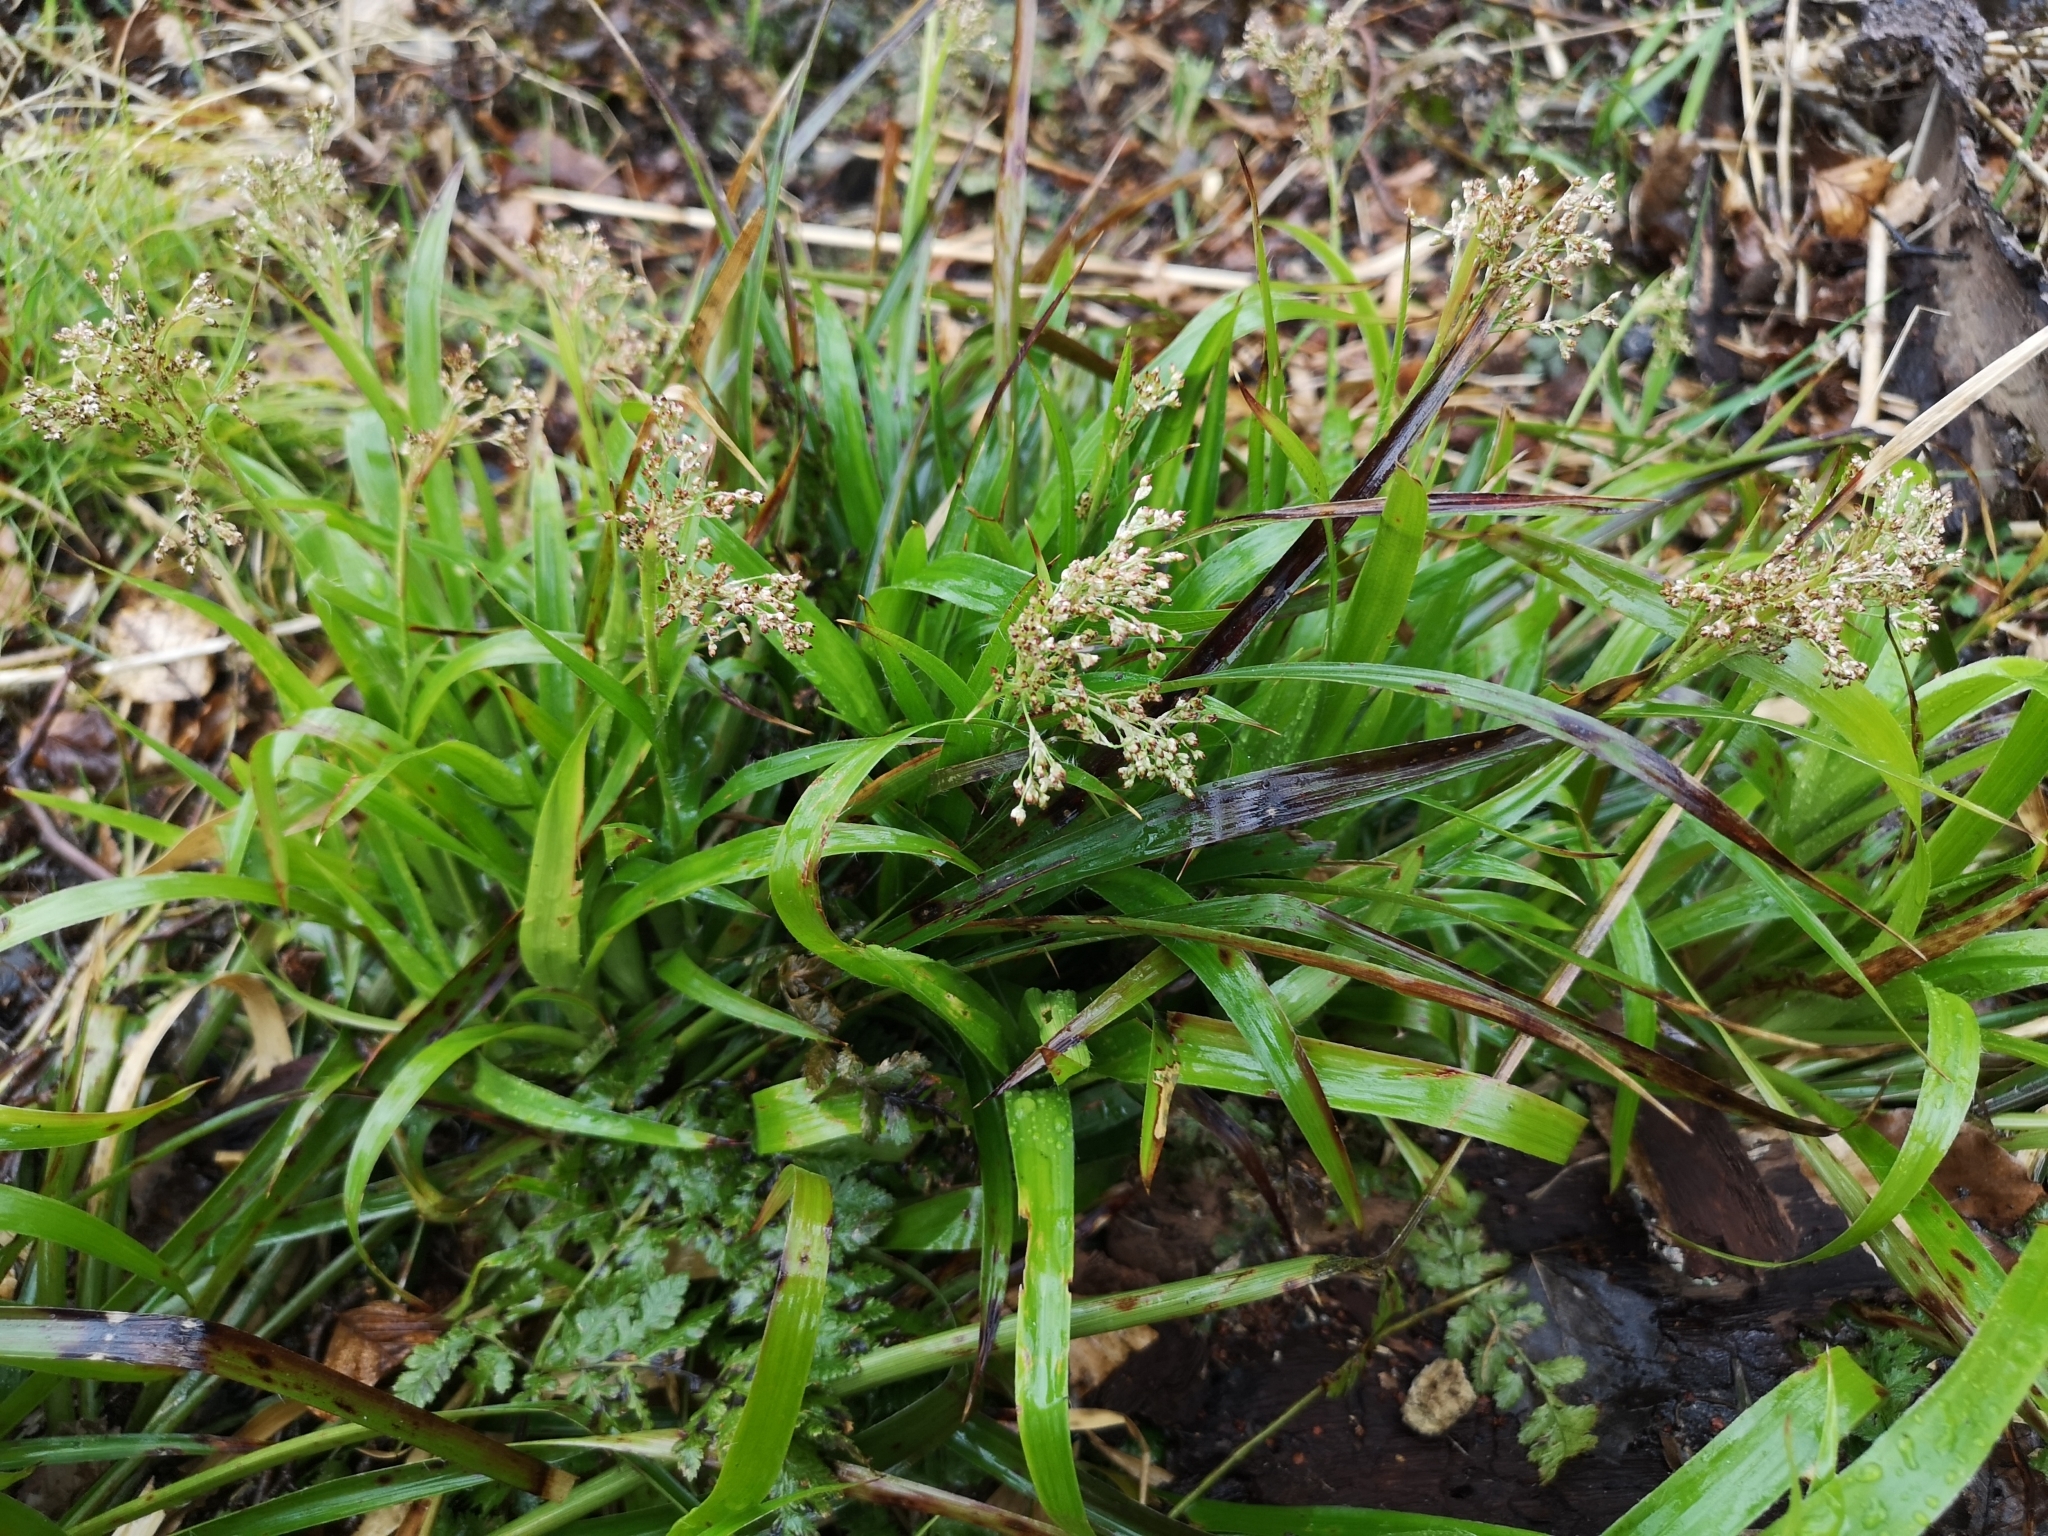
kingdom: Plantae
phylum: Tracheophyta
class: Liliopsida
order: Poales
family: Juncaceae
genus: Luzula
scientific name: Luzula sylvatica
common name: Great wood-rush
